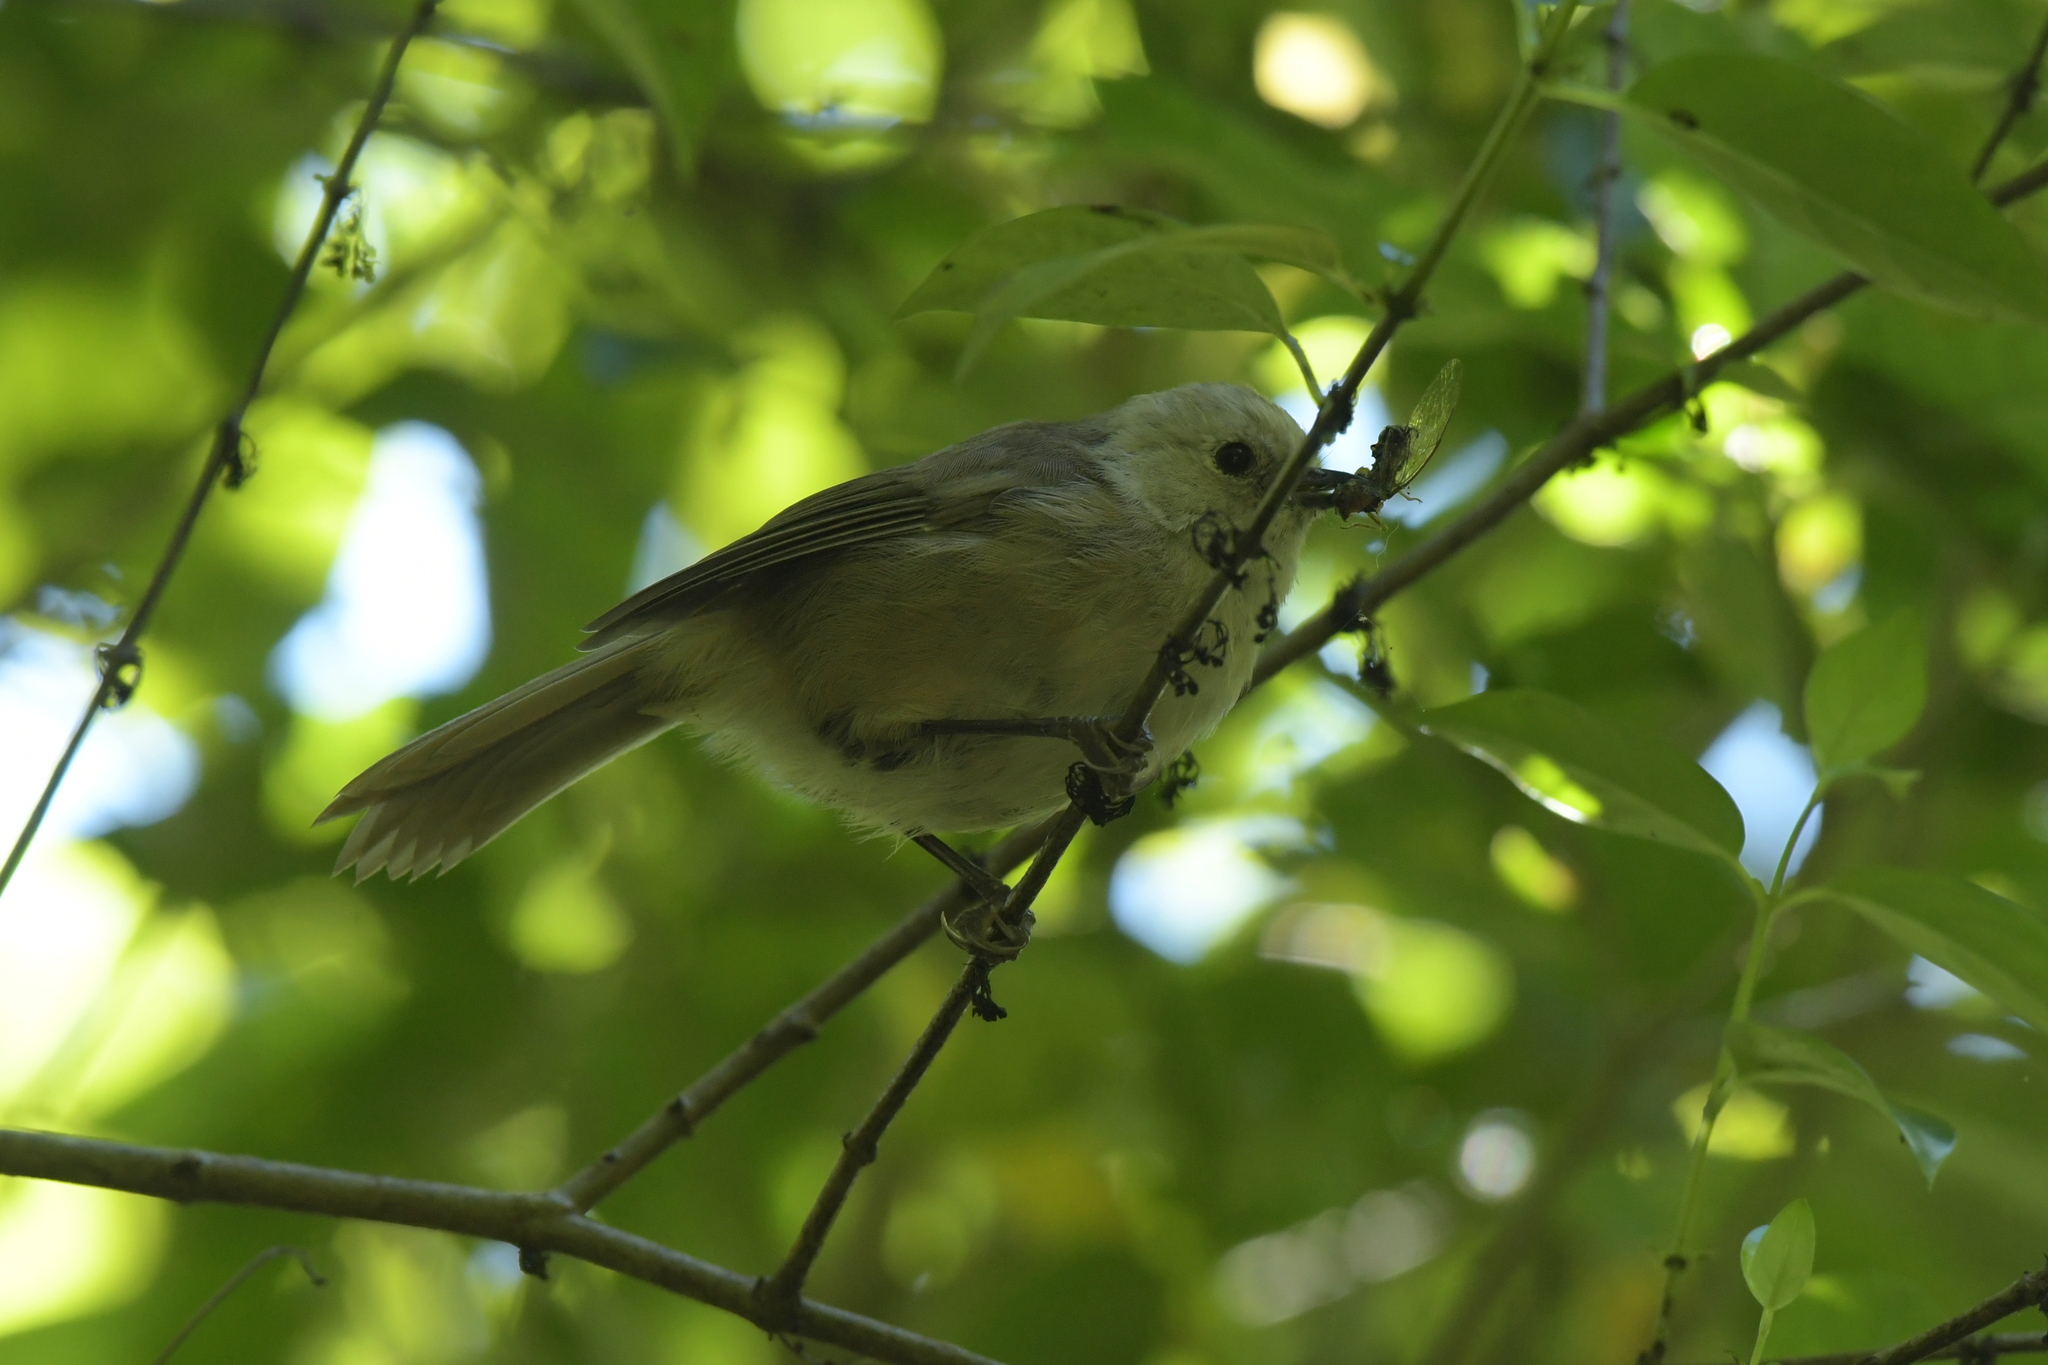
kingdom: Animalia
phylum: Chordata
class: Aves
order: Passeriformes
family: Acanthizidae
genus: Mohoua
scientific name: Mohoua albicilla
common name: Whitehead
